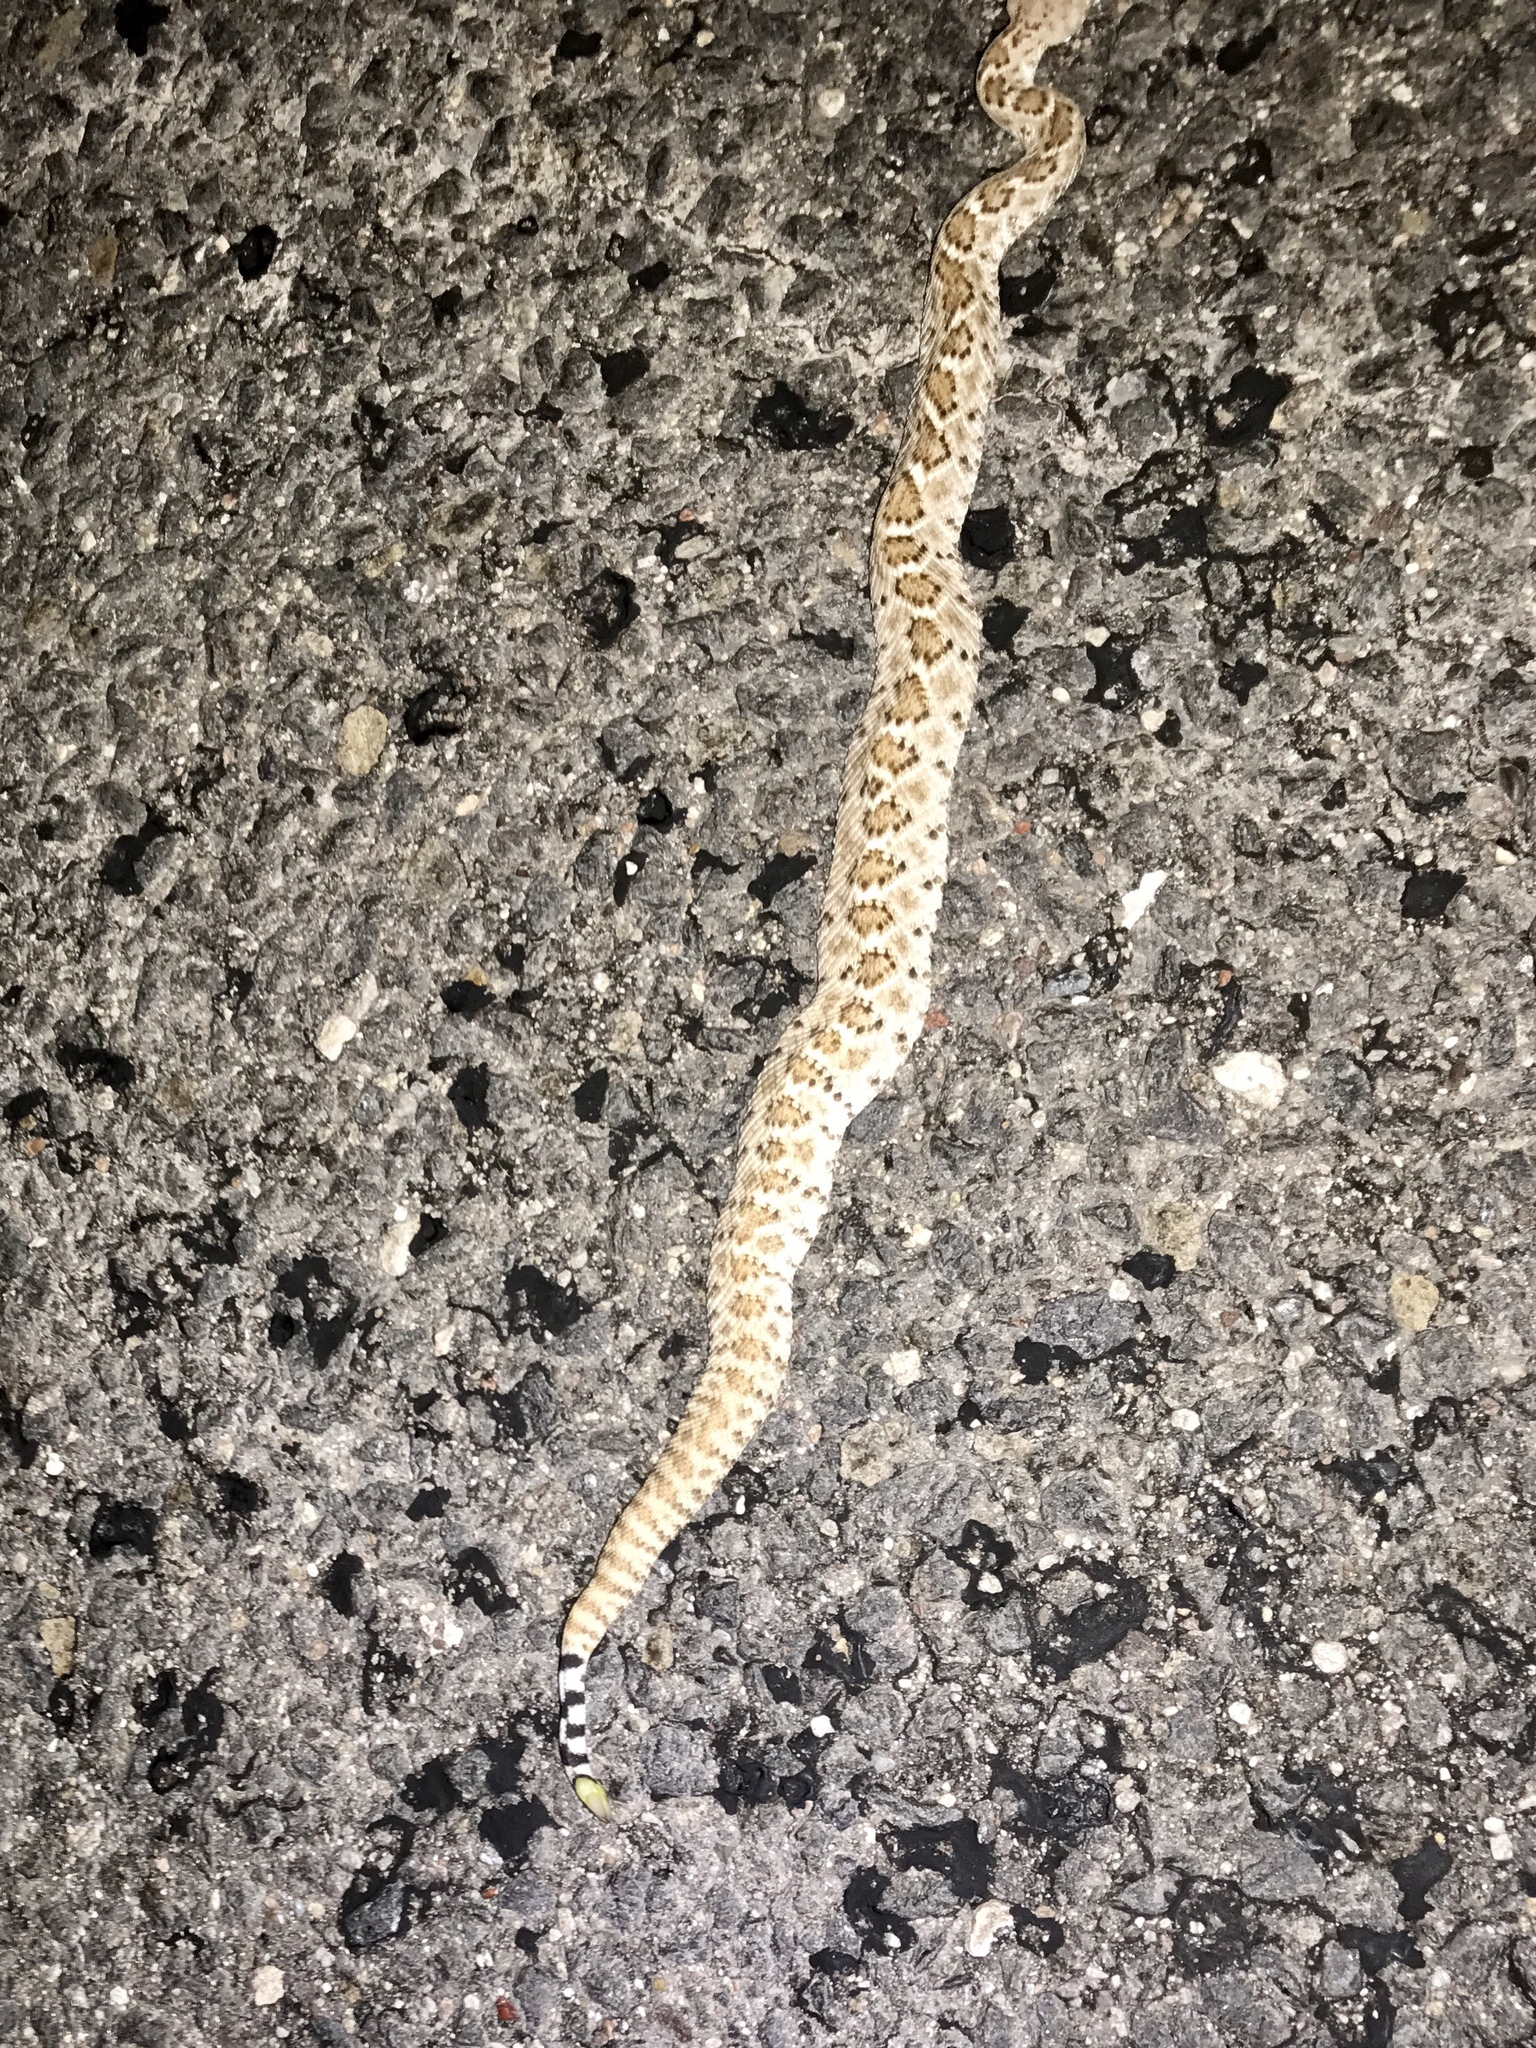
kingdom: Animalia
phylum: Chordata
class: Squamata
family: Viperidae
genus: Crotalus
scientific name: Crotalus atrox
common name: Western diamond-backed rattlesnake
